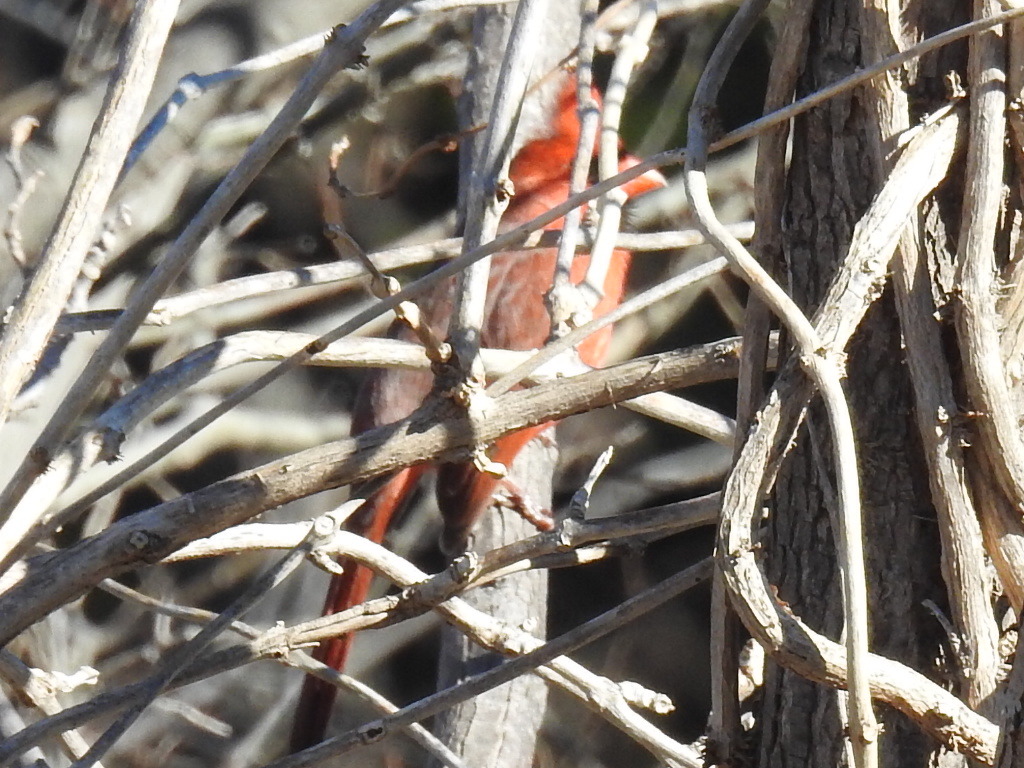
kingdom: Animalia
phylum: Chordata
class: Aves
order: Passeriformes
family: Cardinalidae
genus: Cardinalis
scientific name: Cardinalis cardinalis
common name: Northern cardinal
